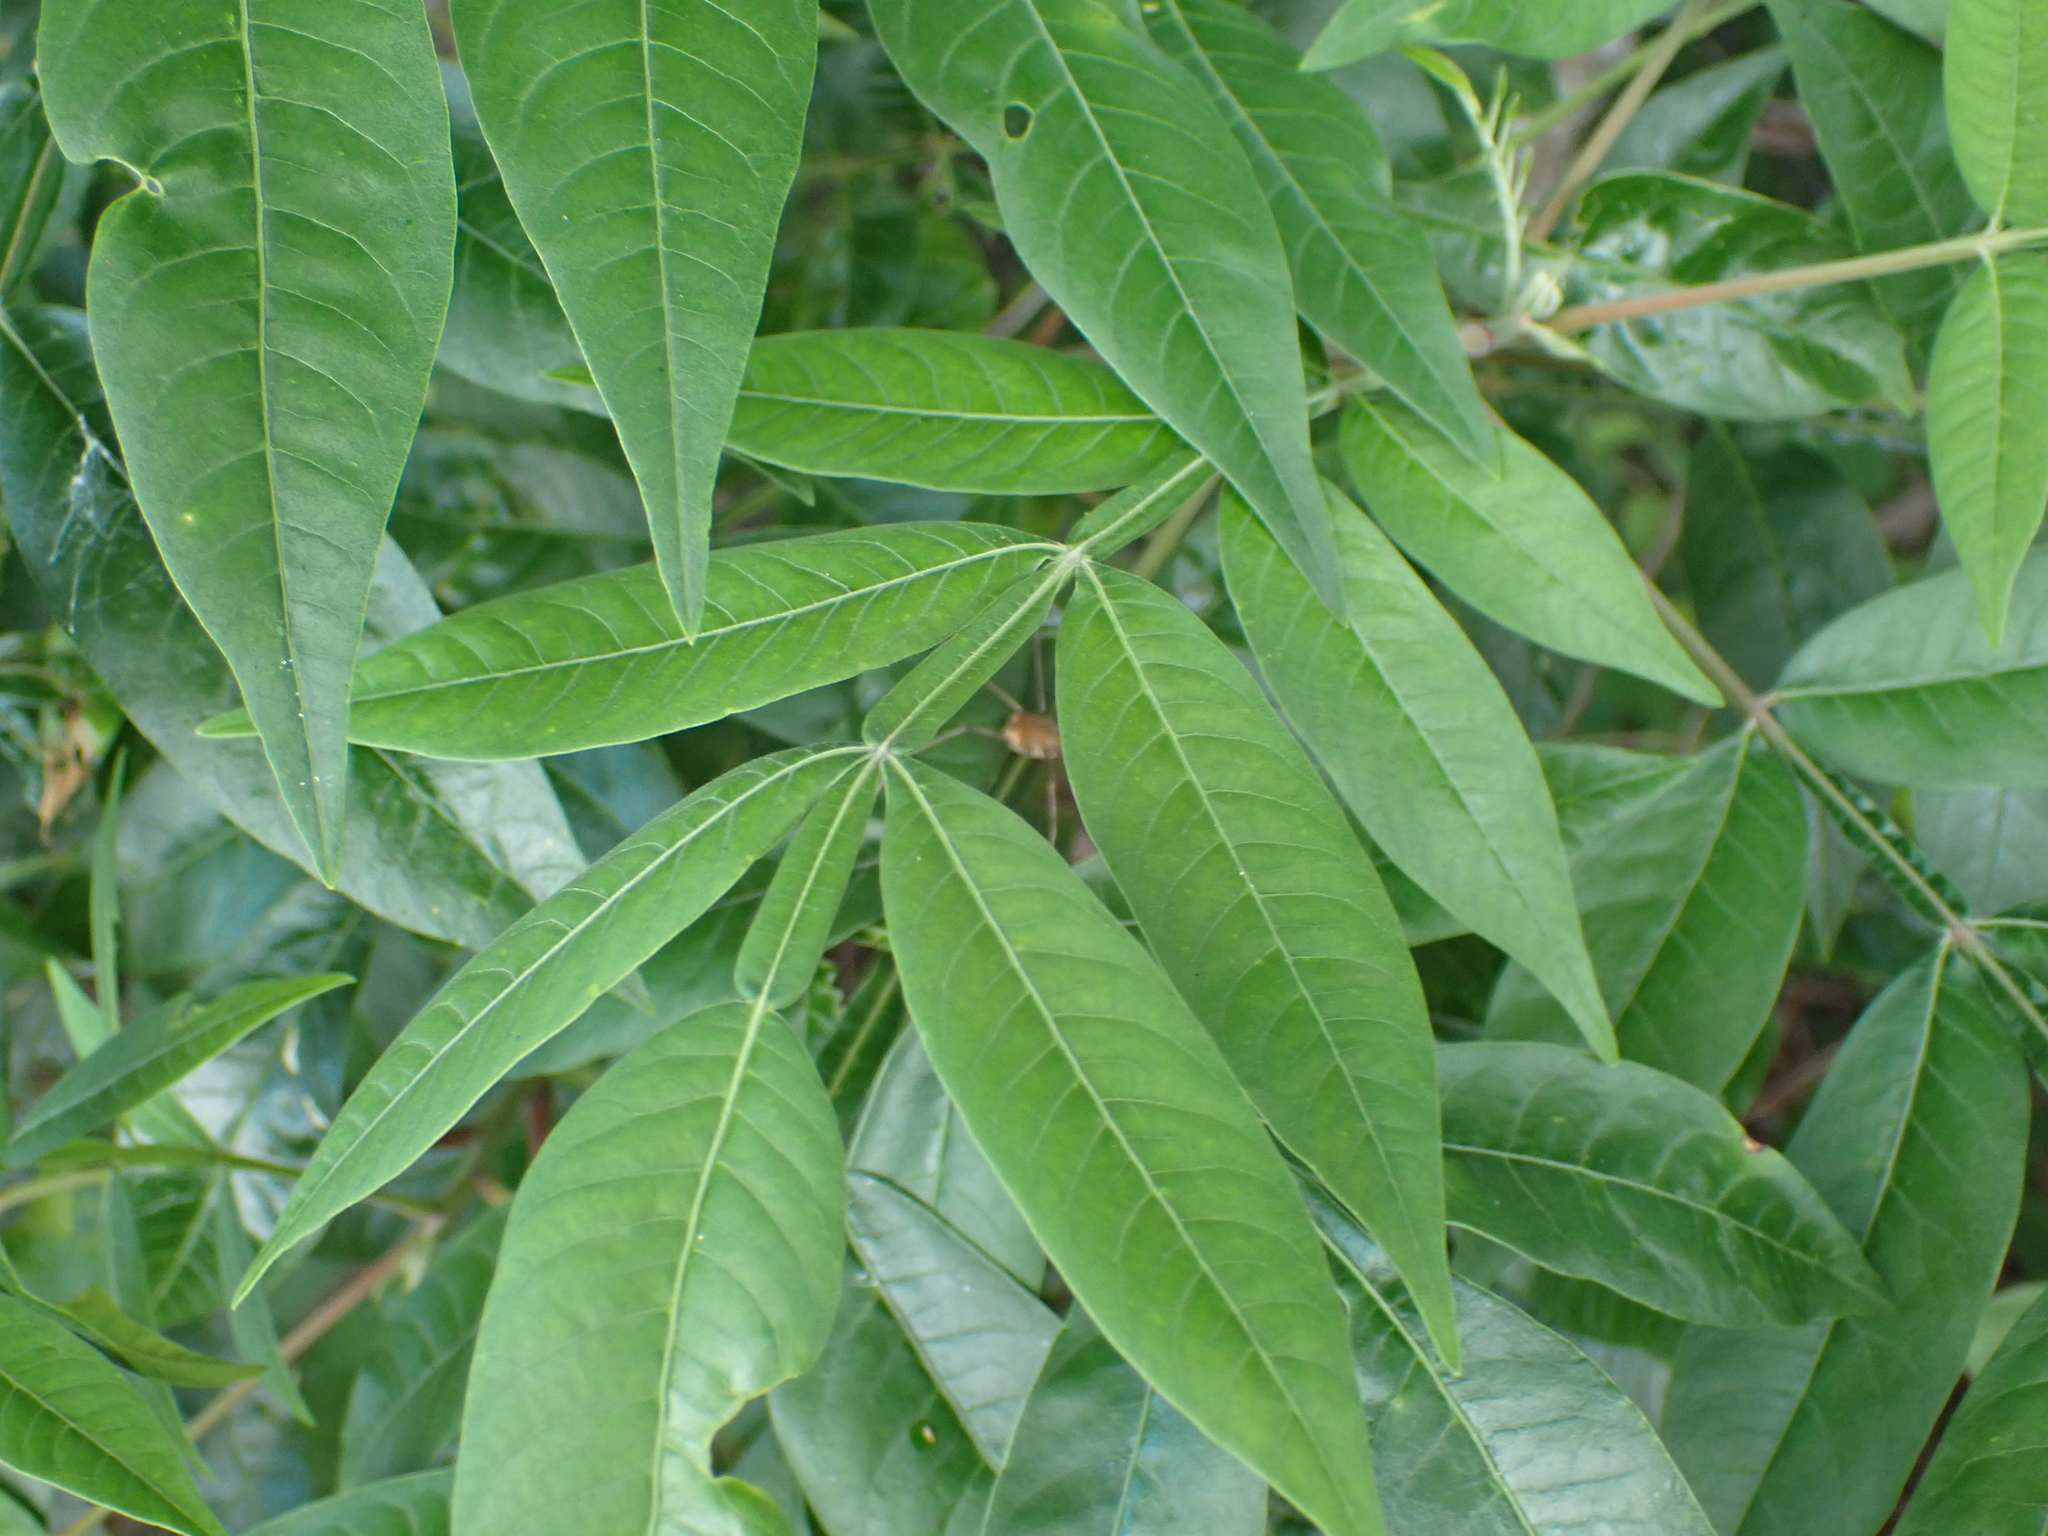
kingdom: Plantae
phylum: Tracheophyta
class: Magnoliopsida
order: Sapindales
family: Anacardiaceae
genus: Rhus
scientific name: Rhus copallina
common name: Shining sumac
